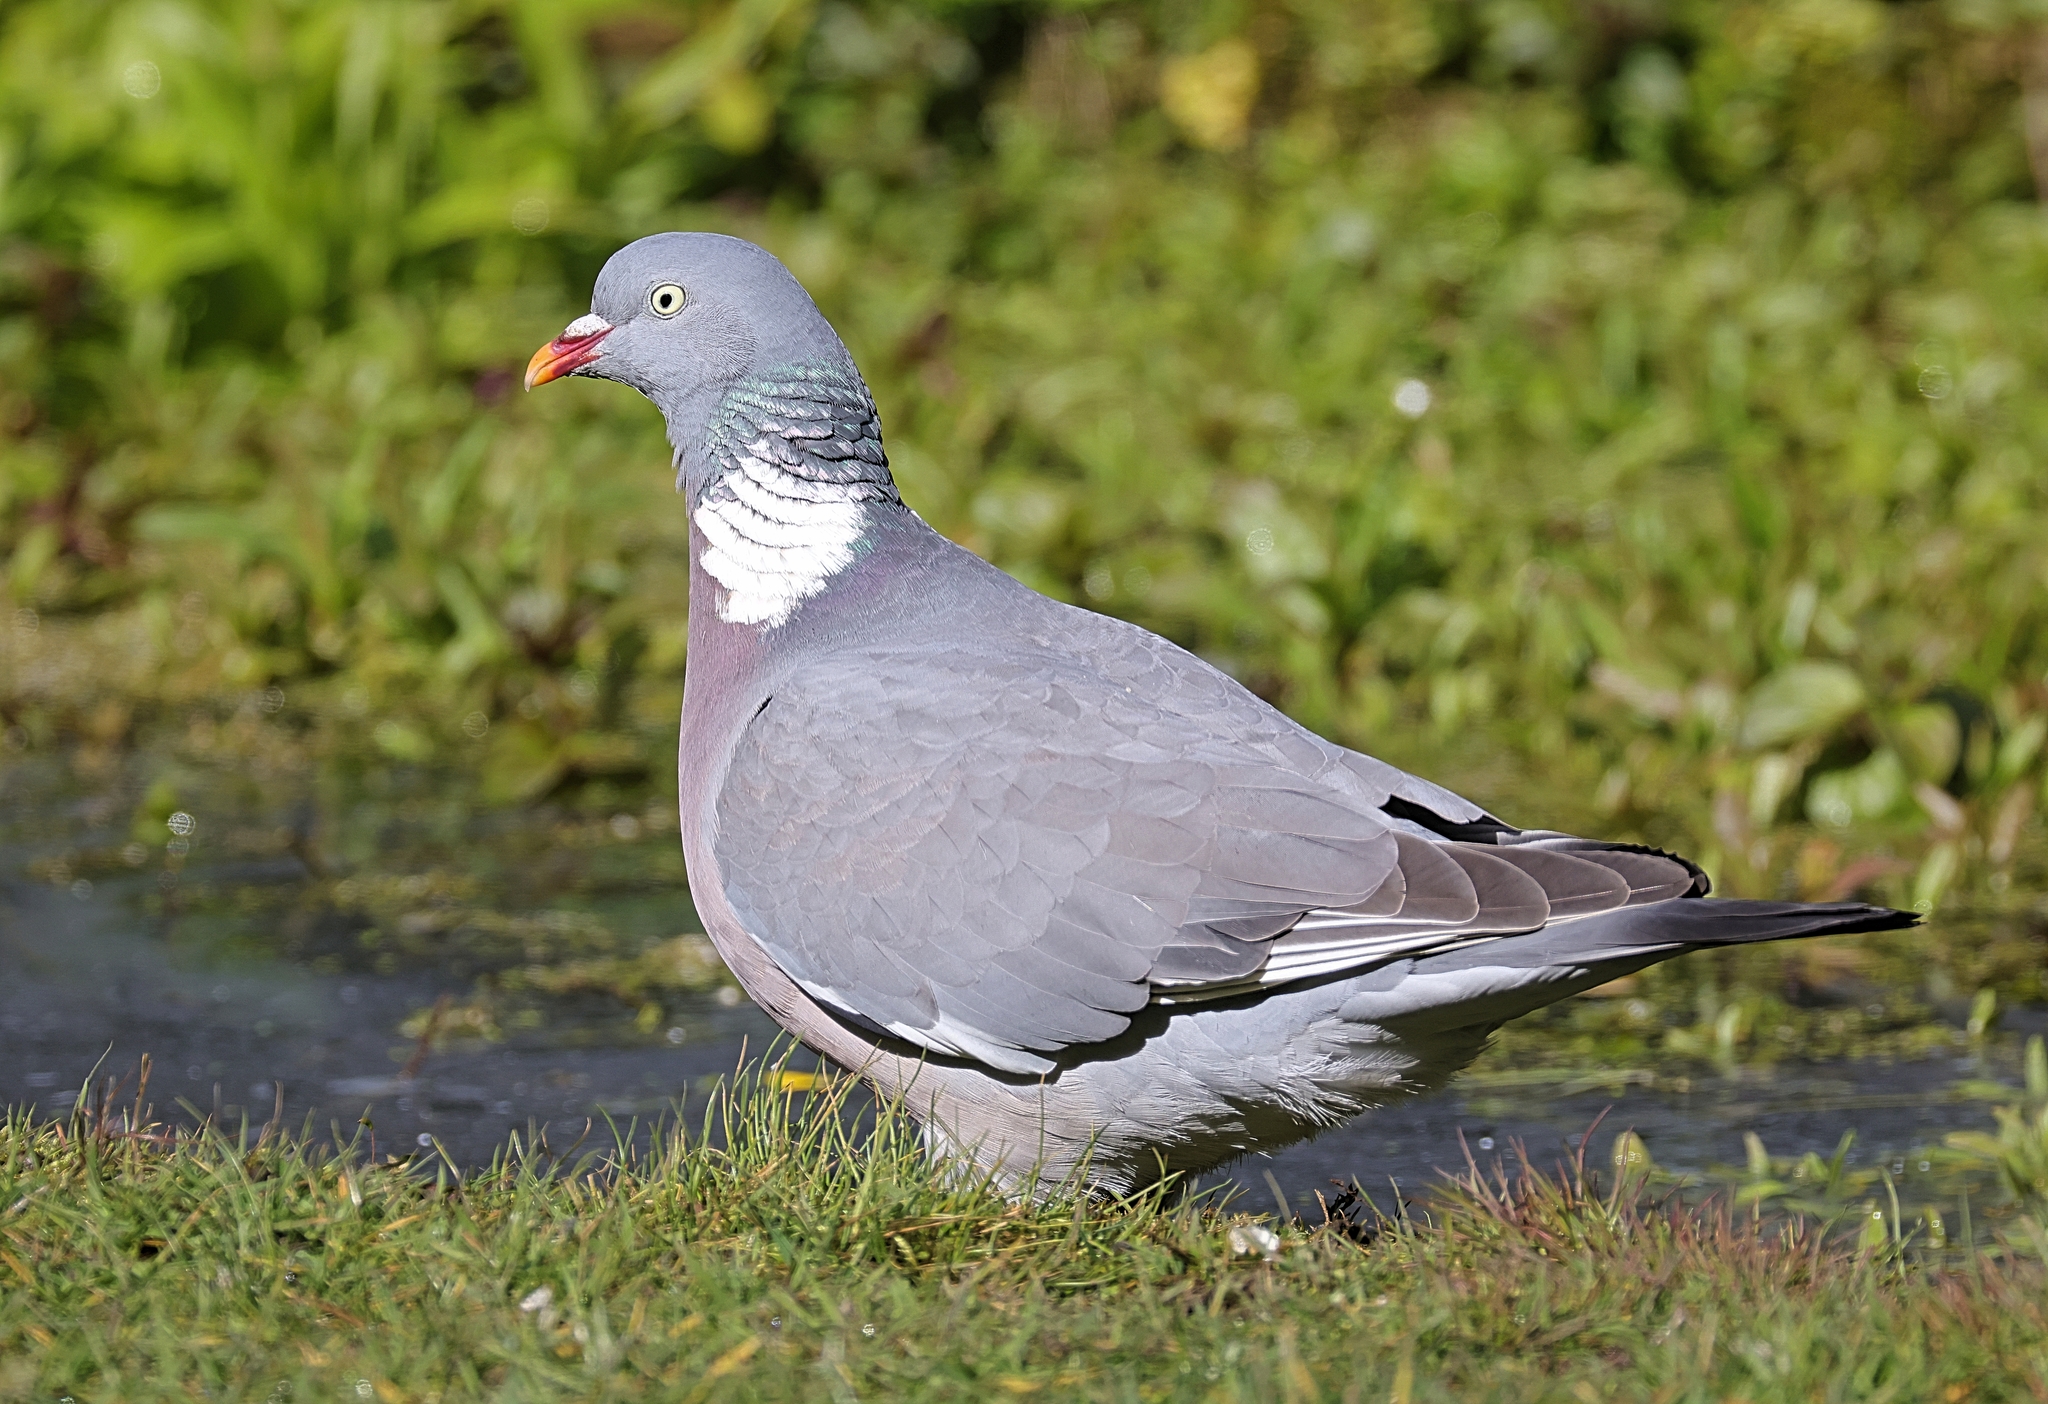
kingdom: Animalia
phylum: Chordata
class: Aves
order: Columbiformes
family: Columbidae
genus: Columba
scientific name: Columba palumbus
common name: Common wood pigeon
